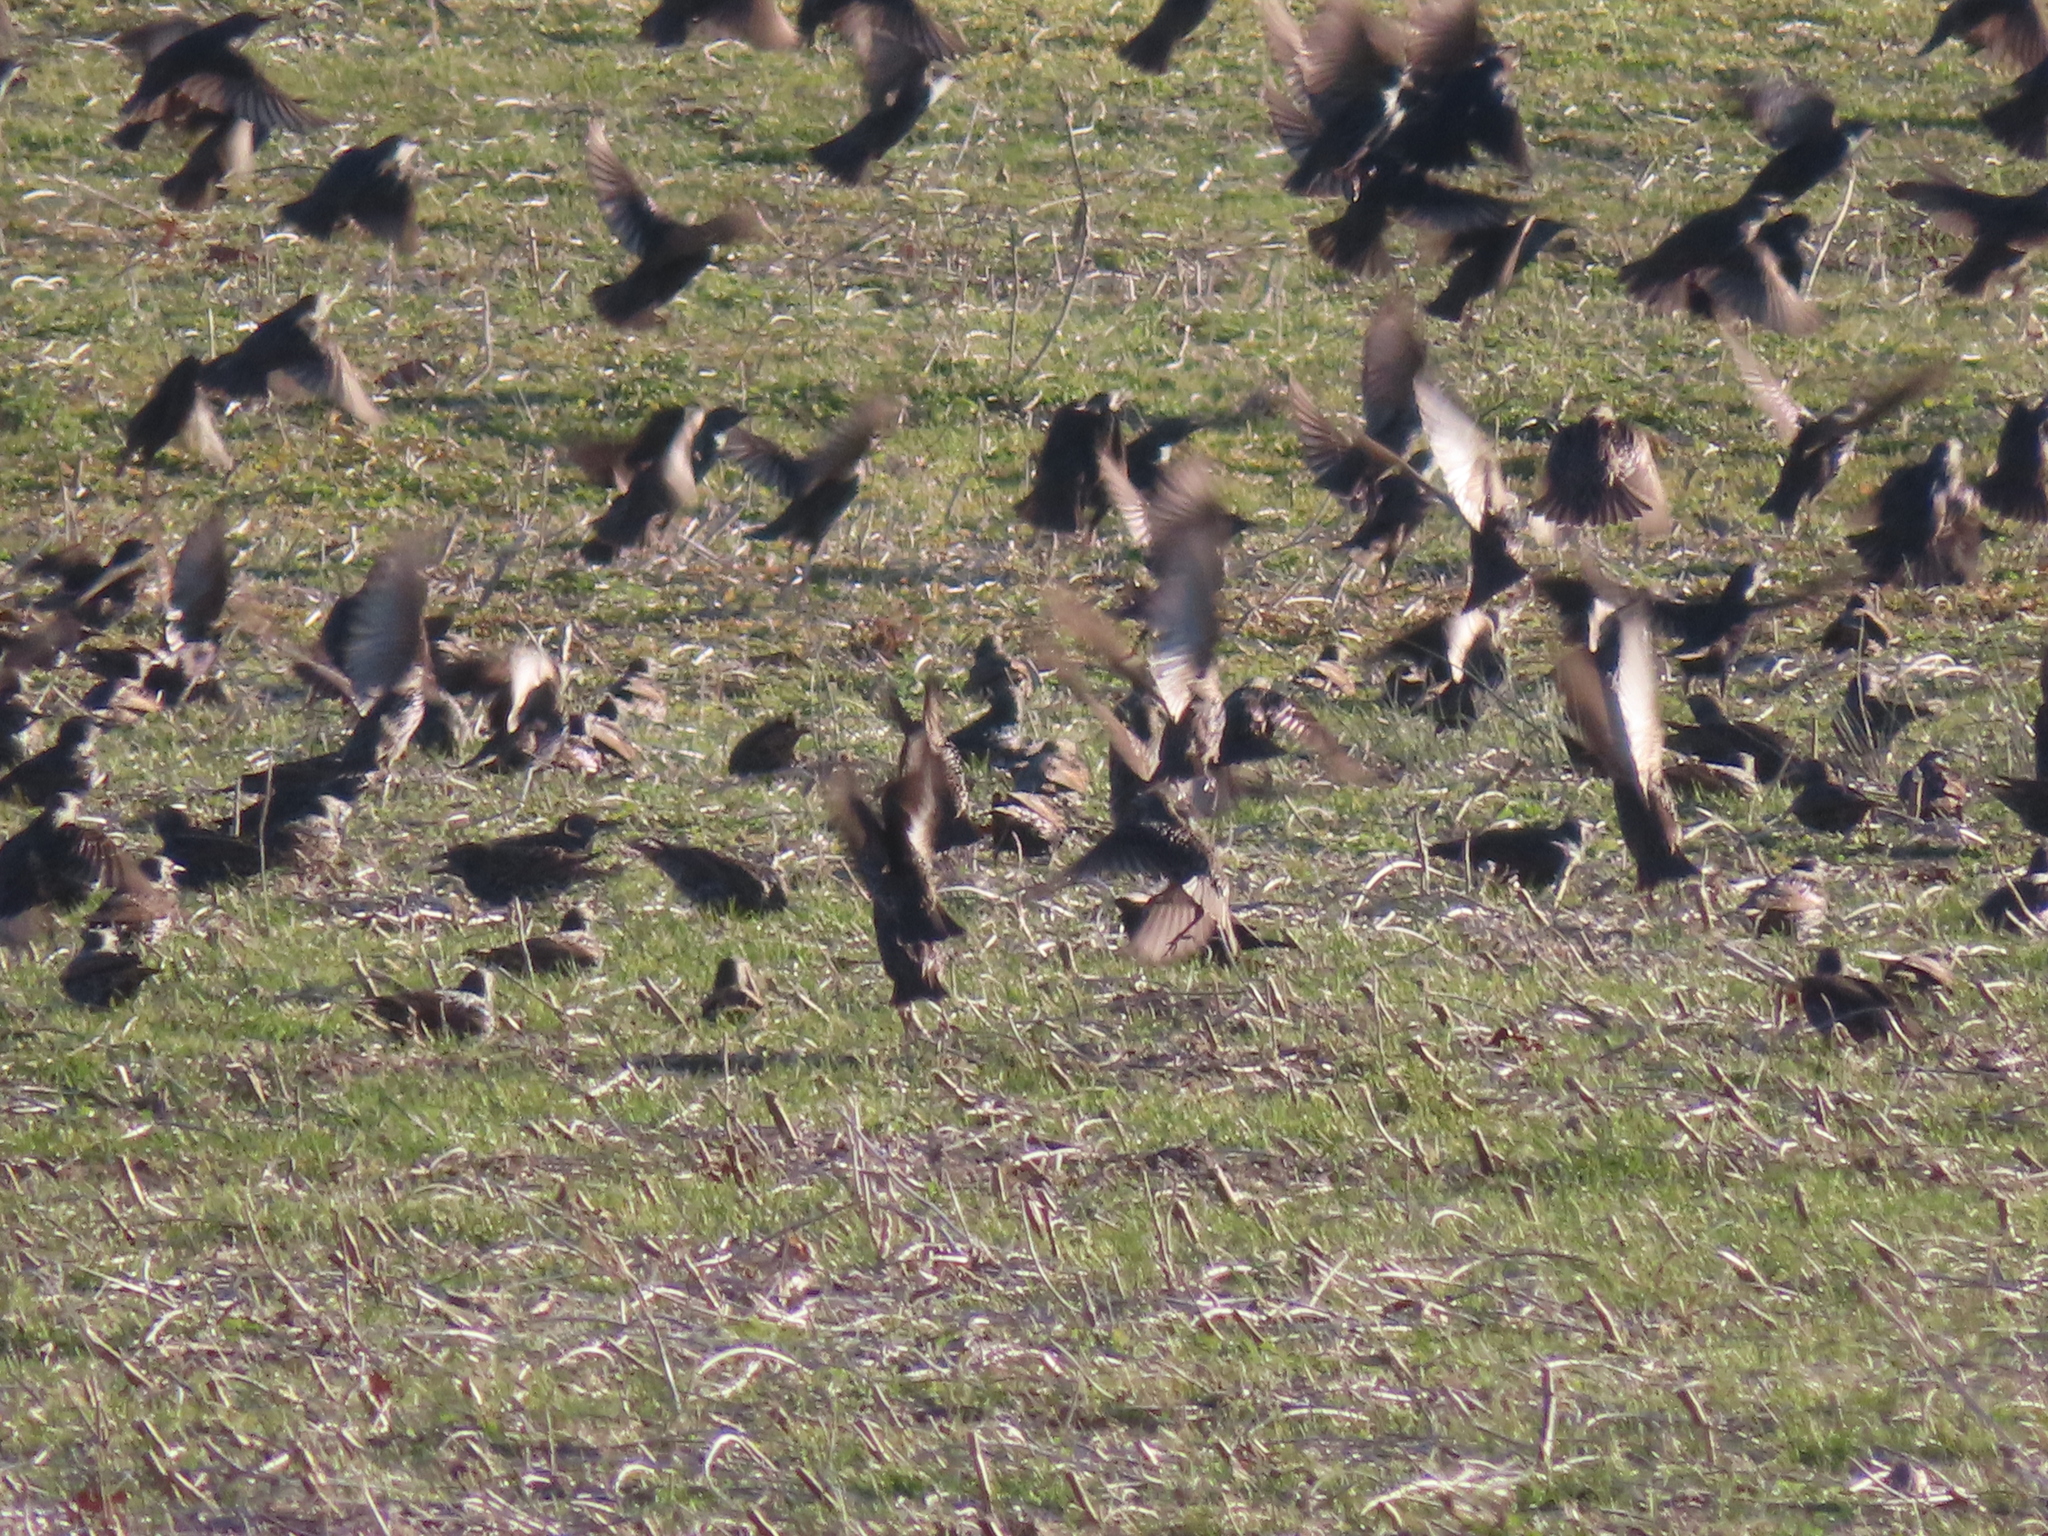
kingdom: Animalia
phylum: Chordata
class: Aves
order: Passeriformes
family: Sturnidae
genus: Sturnus
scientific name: Sturnus vulgaris
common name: Common starling
